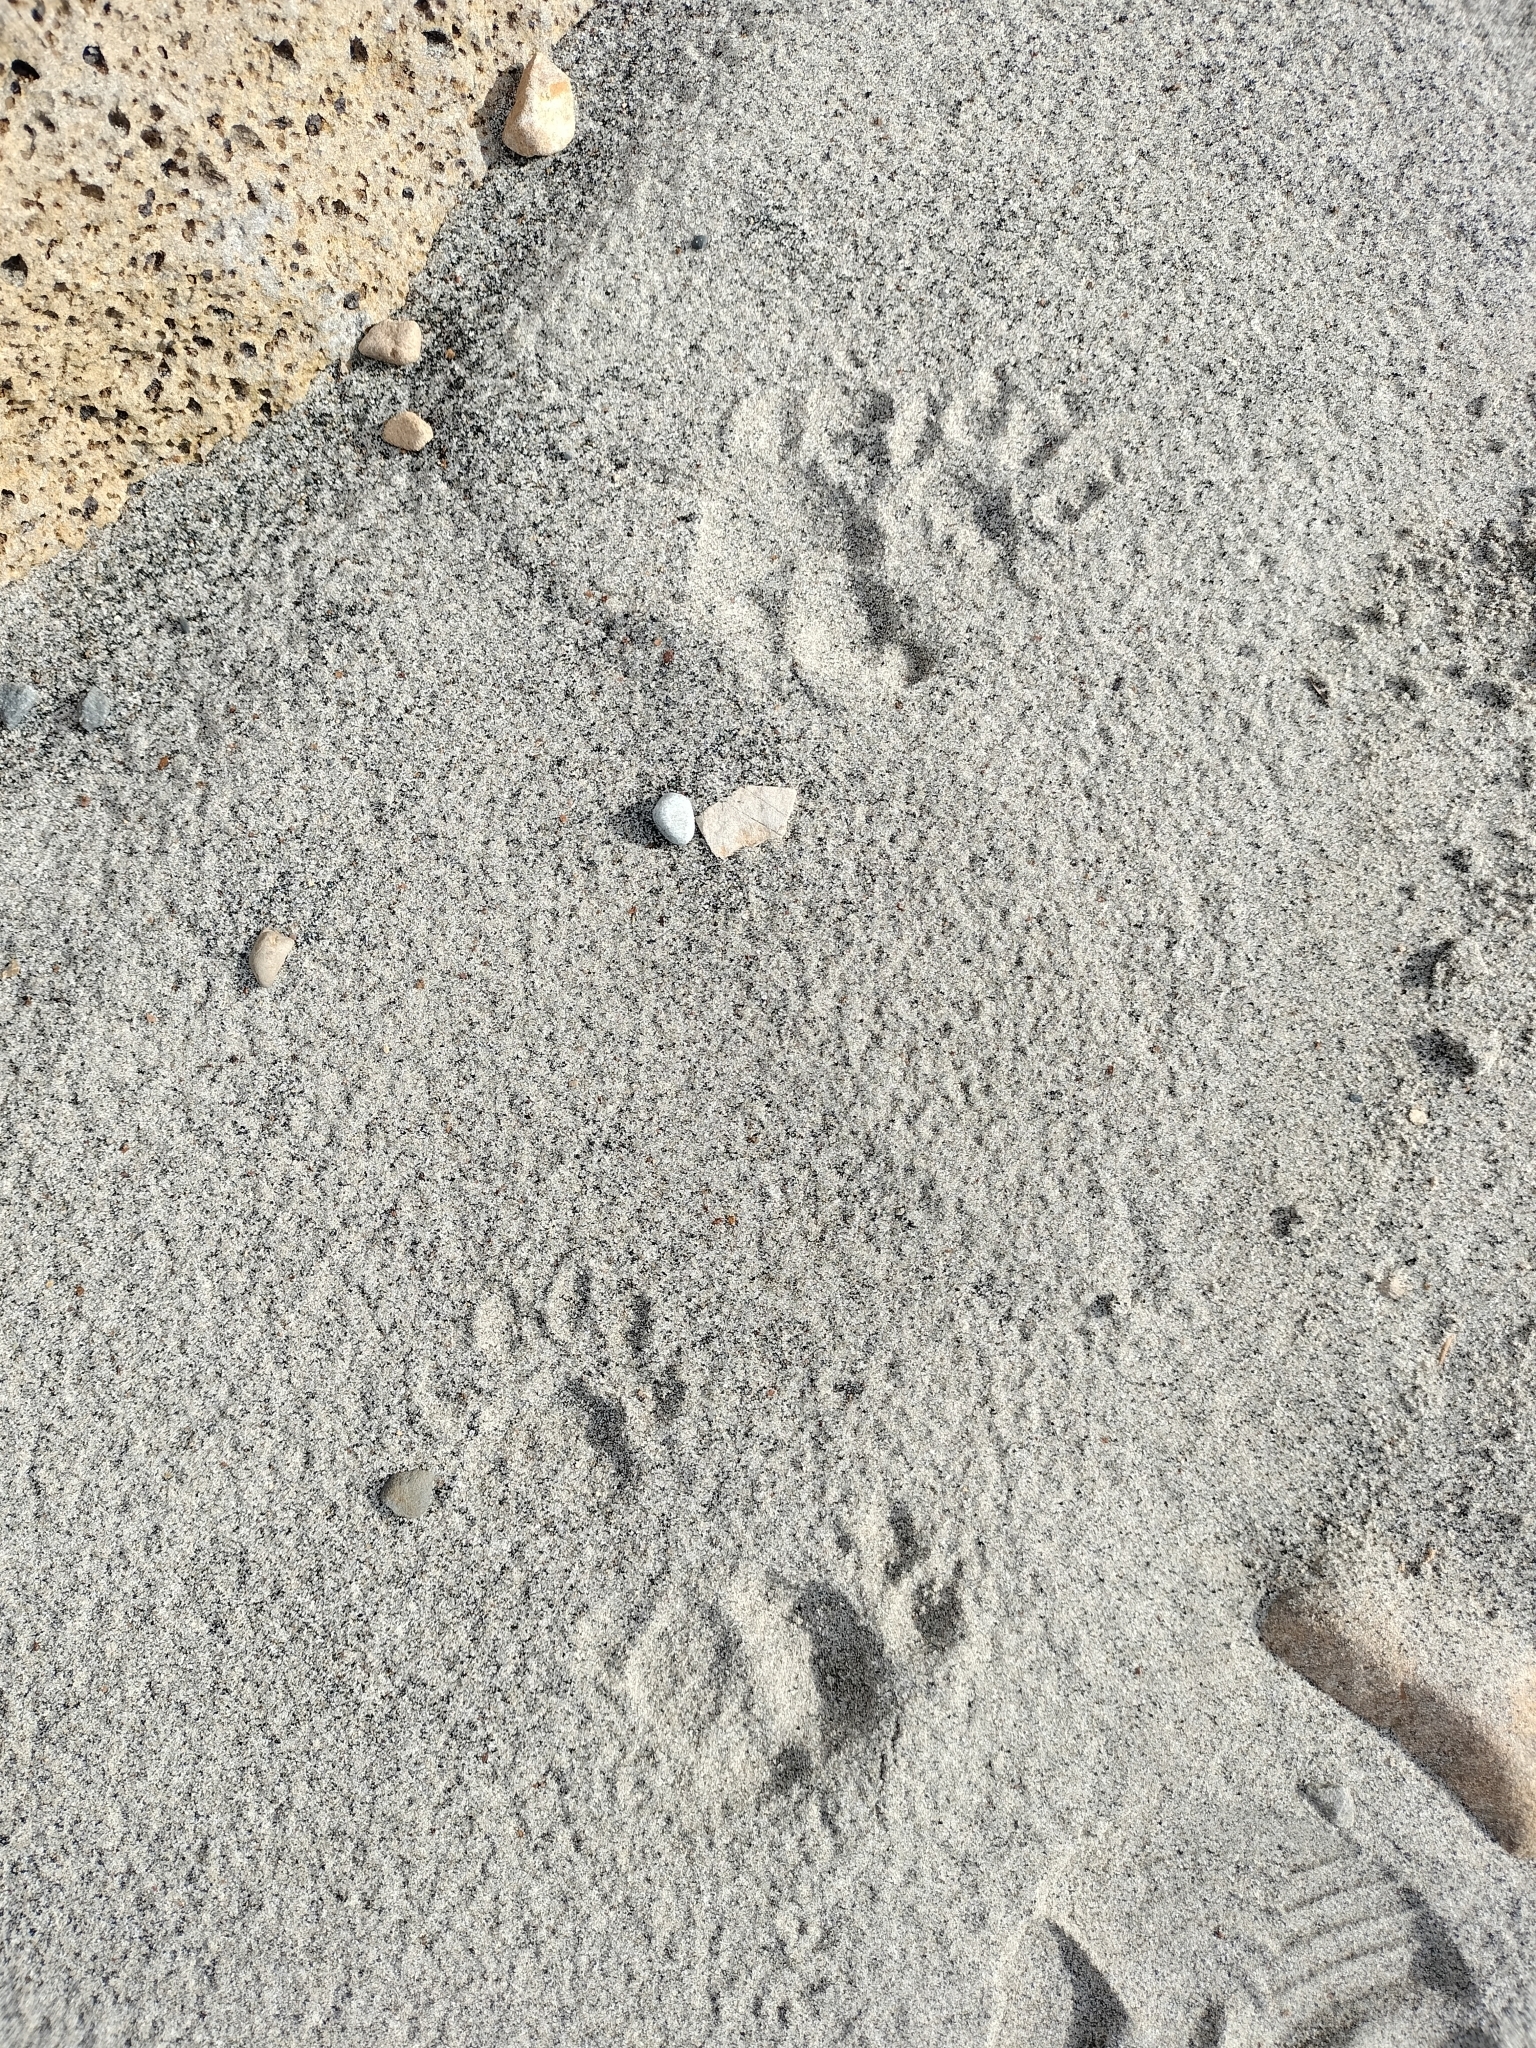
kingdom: Animalia
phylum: Chordata
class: Mammalia
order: Diprotodontia
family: Phalangeridae
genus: Trichosurus
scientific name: Trichosurus vulpecula
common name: Common brushtail
